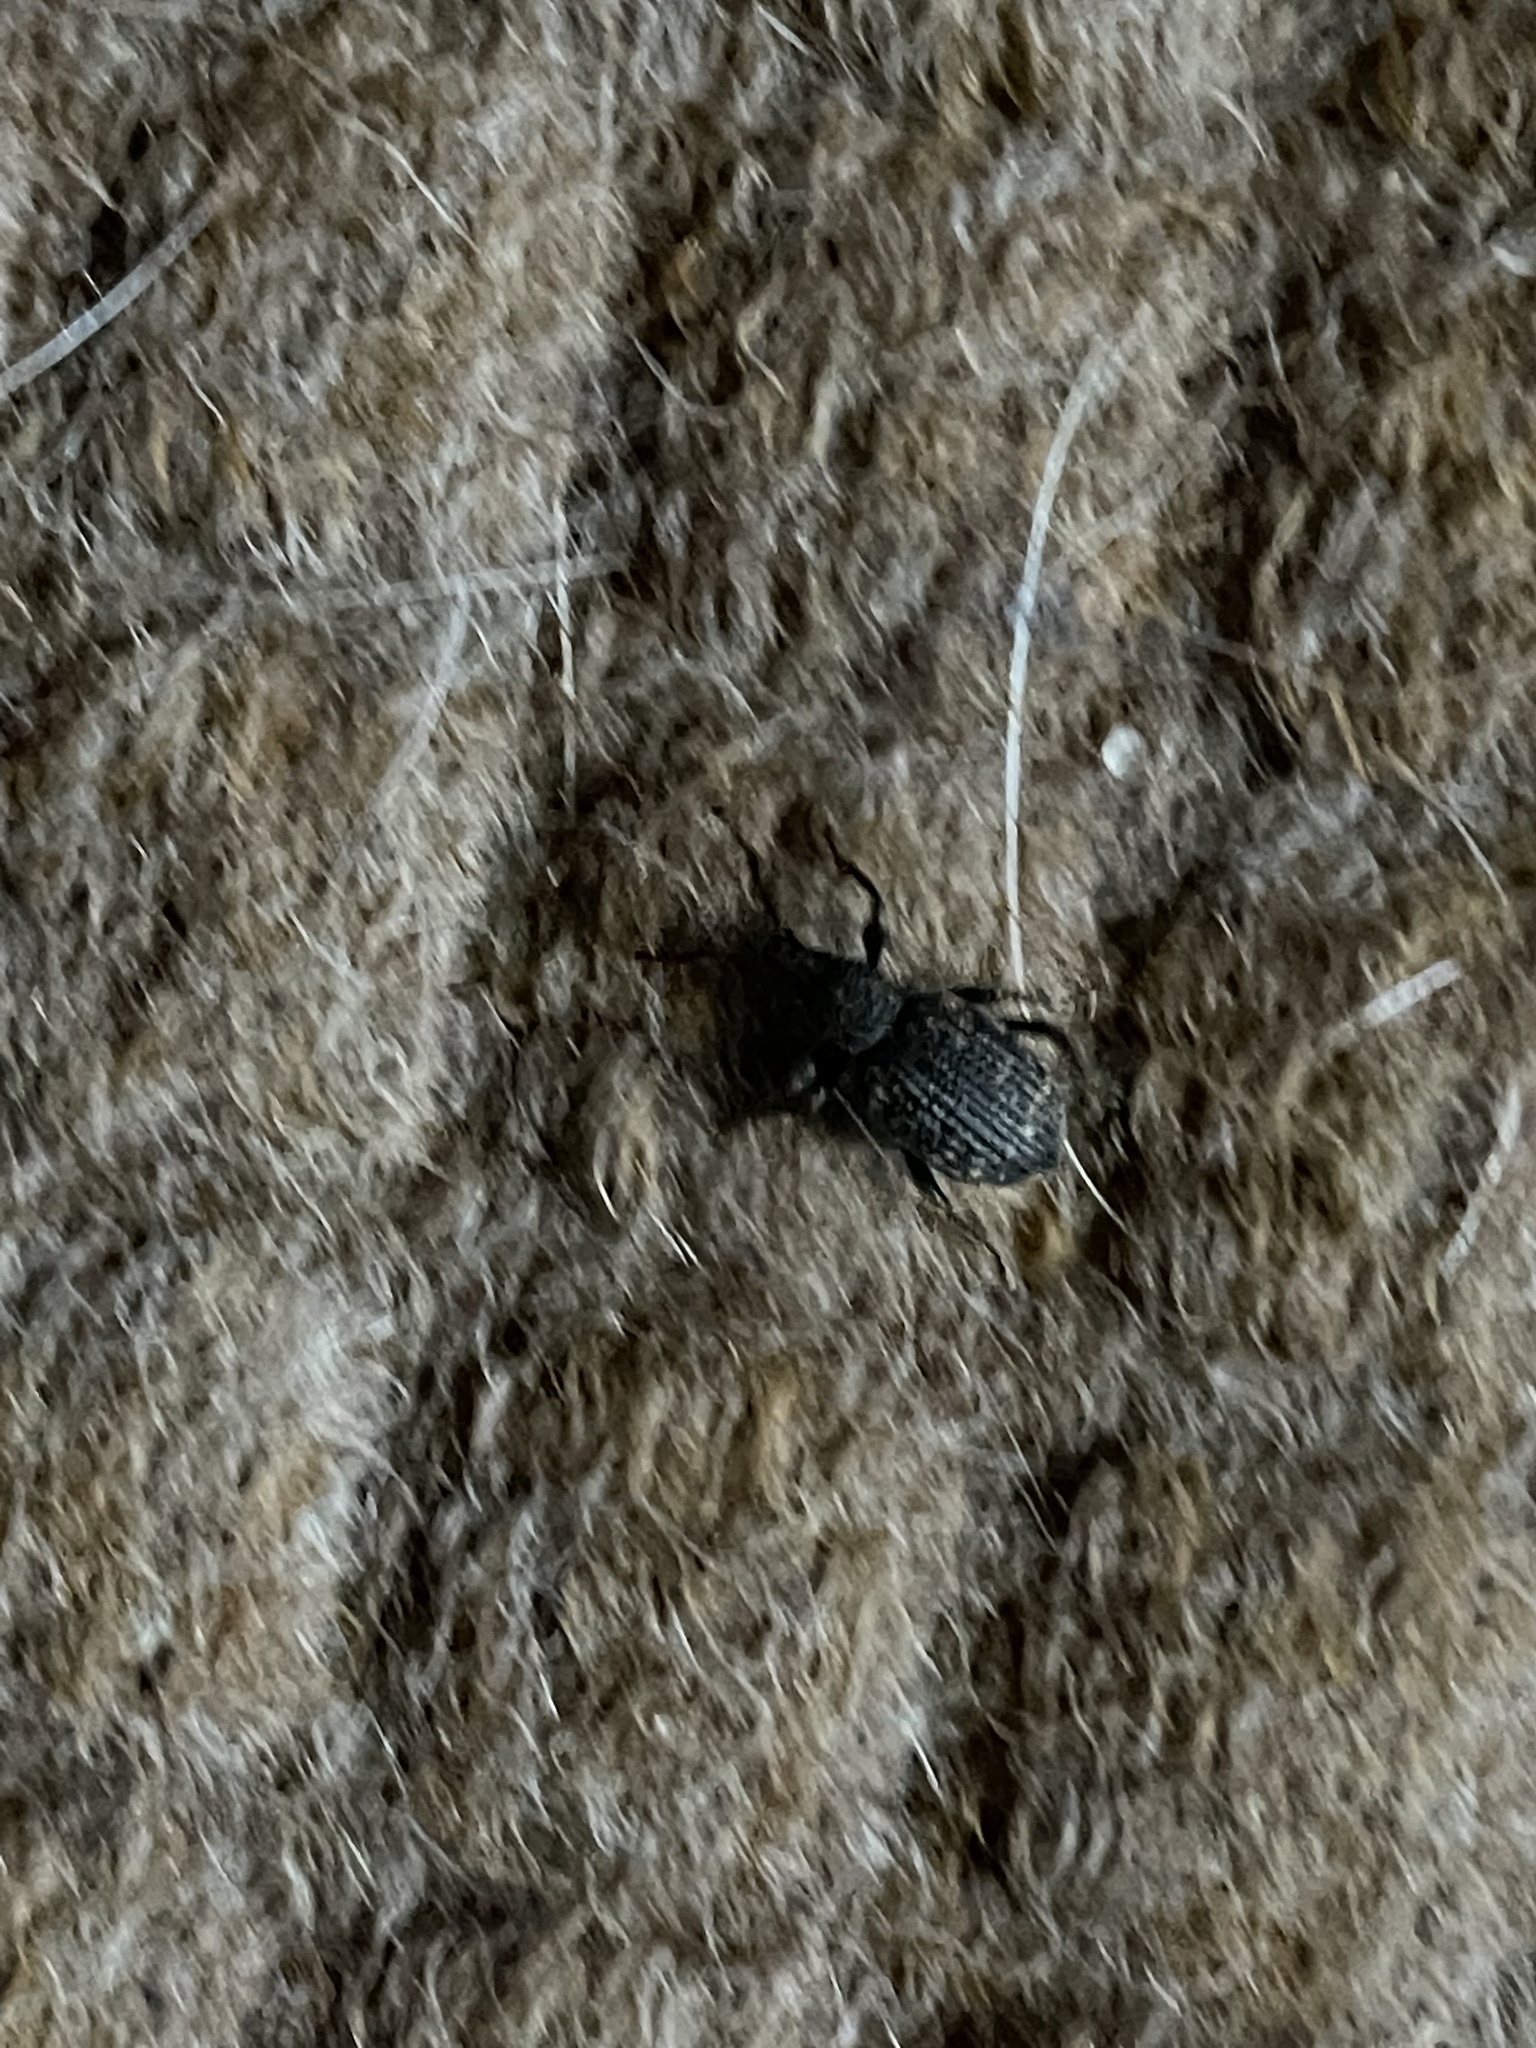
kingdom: Animalia
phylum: Arthropoda
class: Insecta
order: Coleoptera
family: Curculionidae
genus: Otiorhynchus
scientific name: Otiorhynchus sulcatus
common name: Black vine weevil
